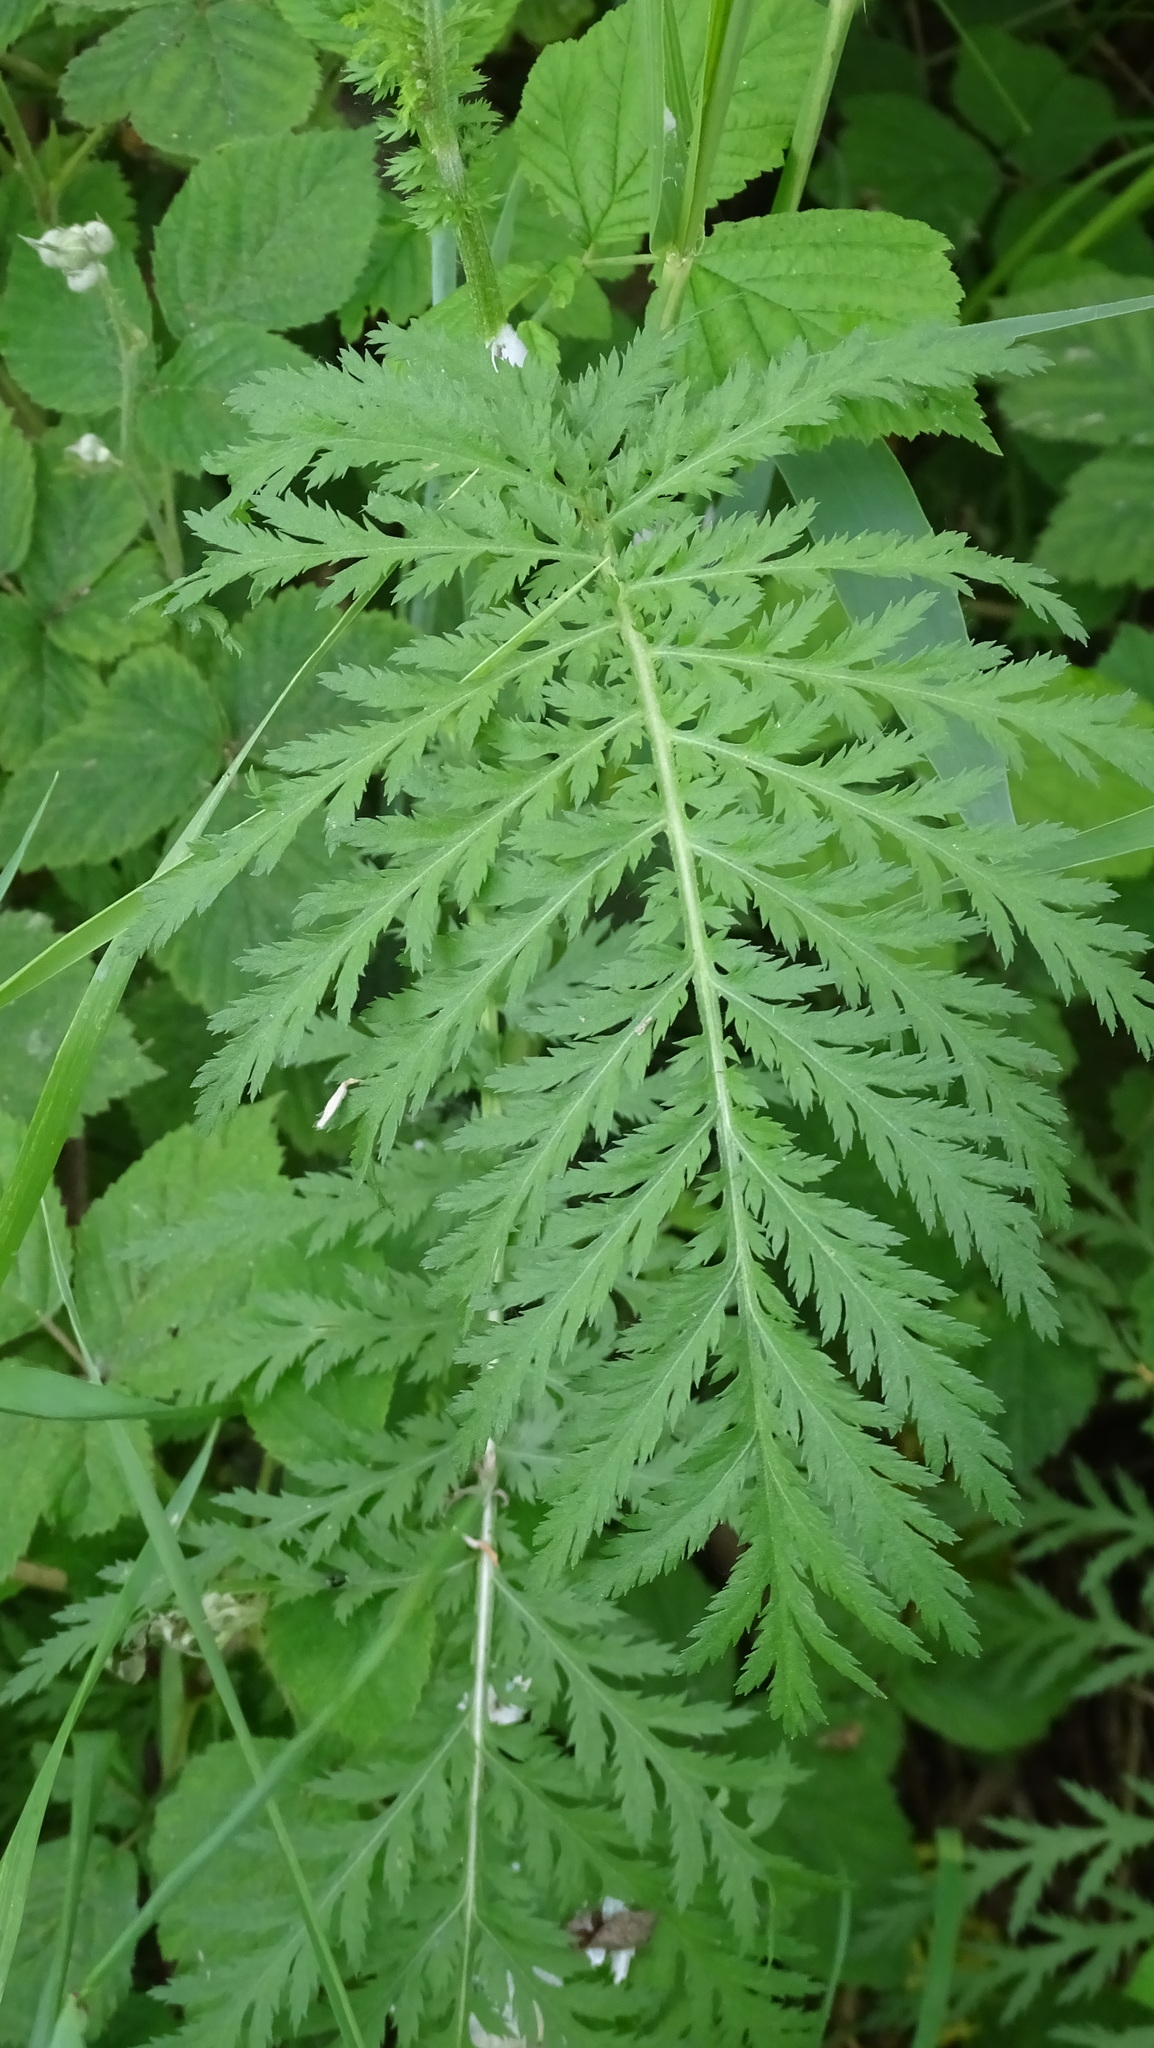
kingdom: Plantae
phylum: Tracheophyta
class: Magnoliopsida
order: Asterales
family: Asteraceae
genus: Tanacetum
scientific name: Tanacetum vulgare
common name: Common tansy
